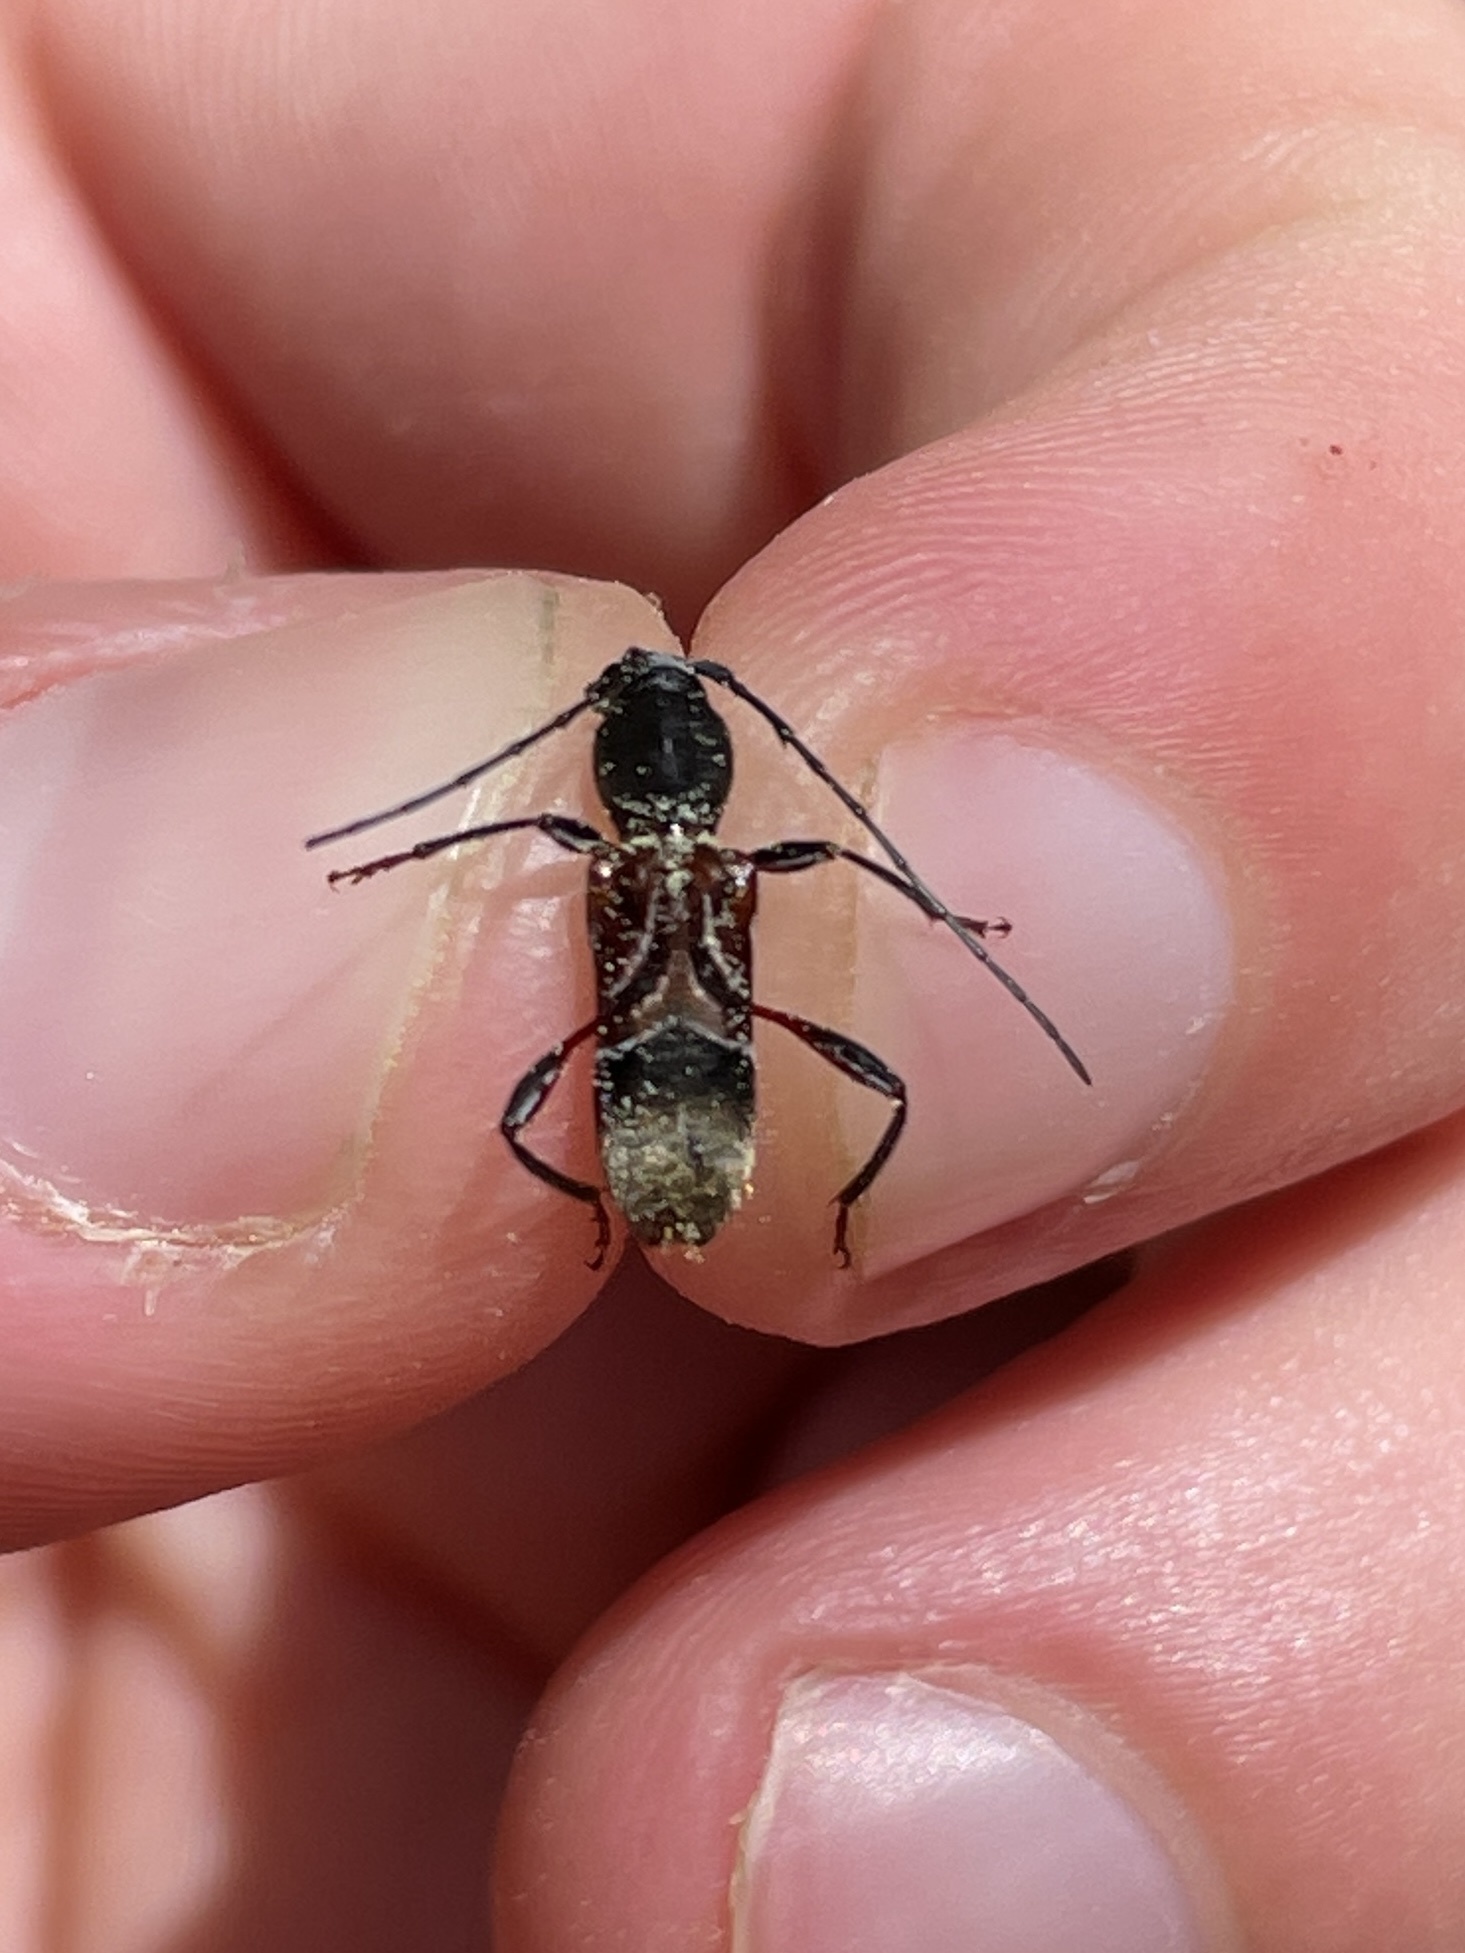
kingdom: Animalia
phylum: Arthropoda
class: Insecta
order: Coleoptera
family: Cerambycidae
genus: Cyrtophorus
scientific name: Cyrtophorus verrucosus
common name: Ant-like longhorn beetle
